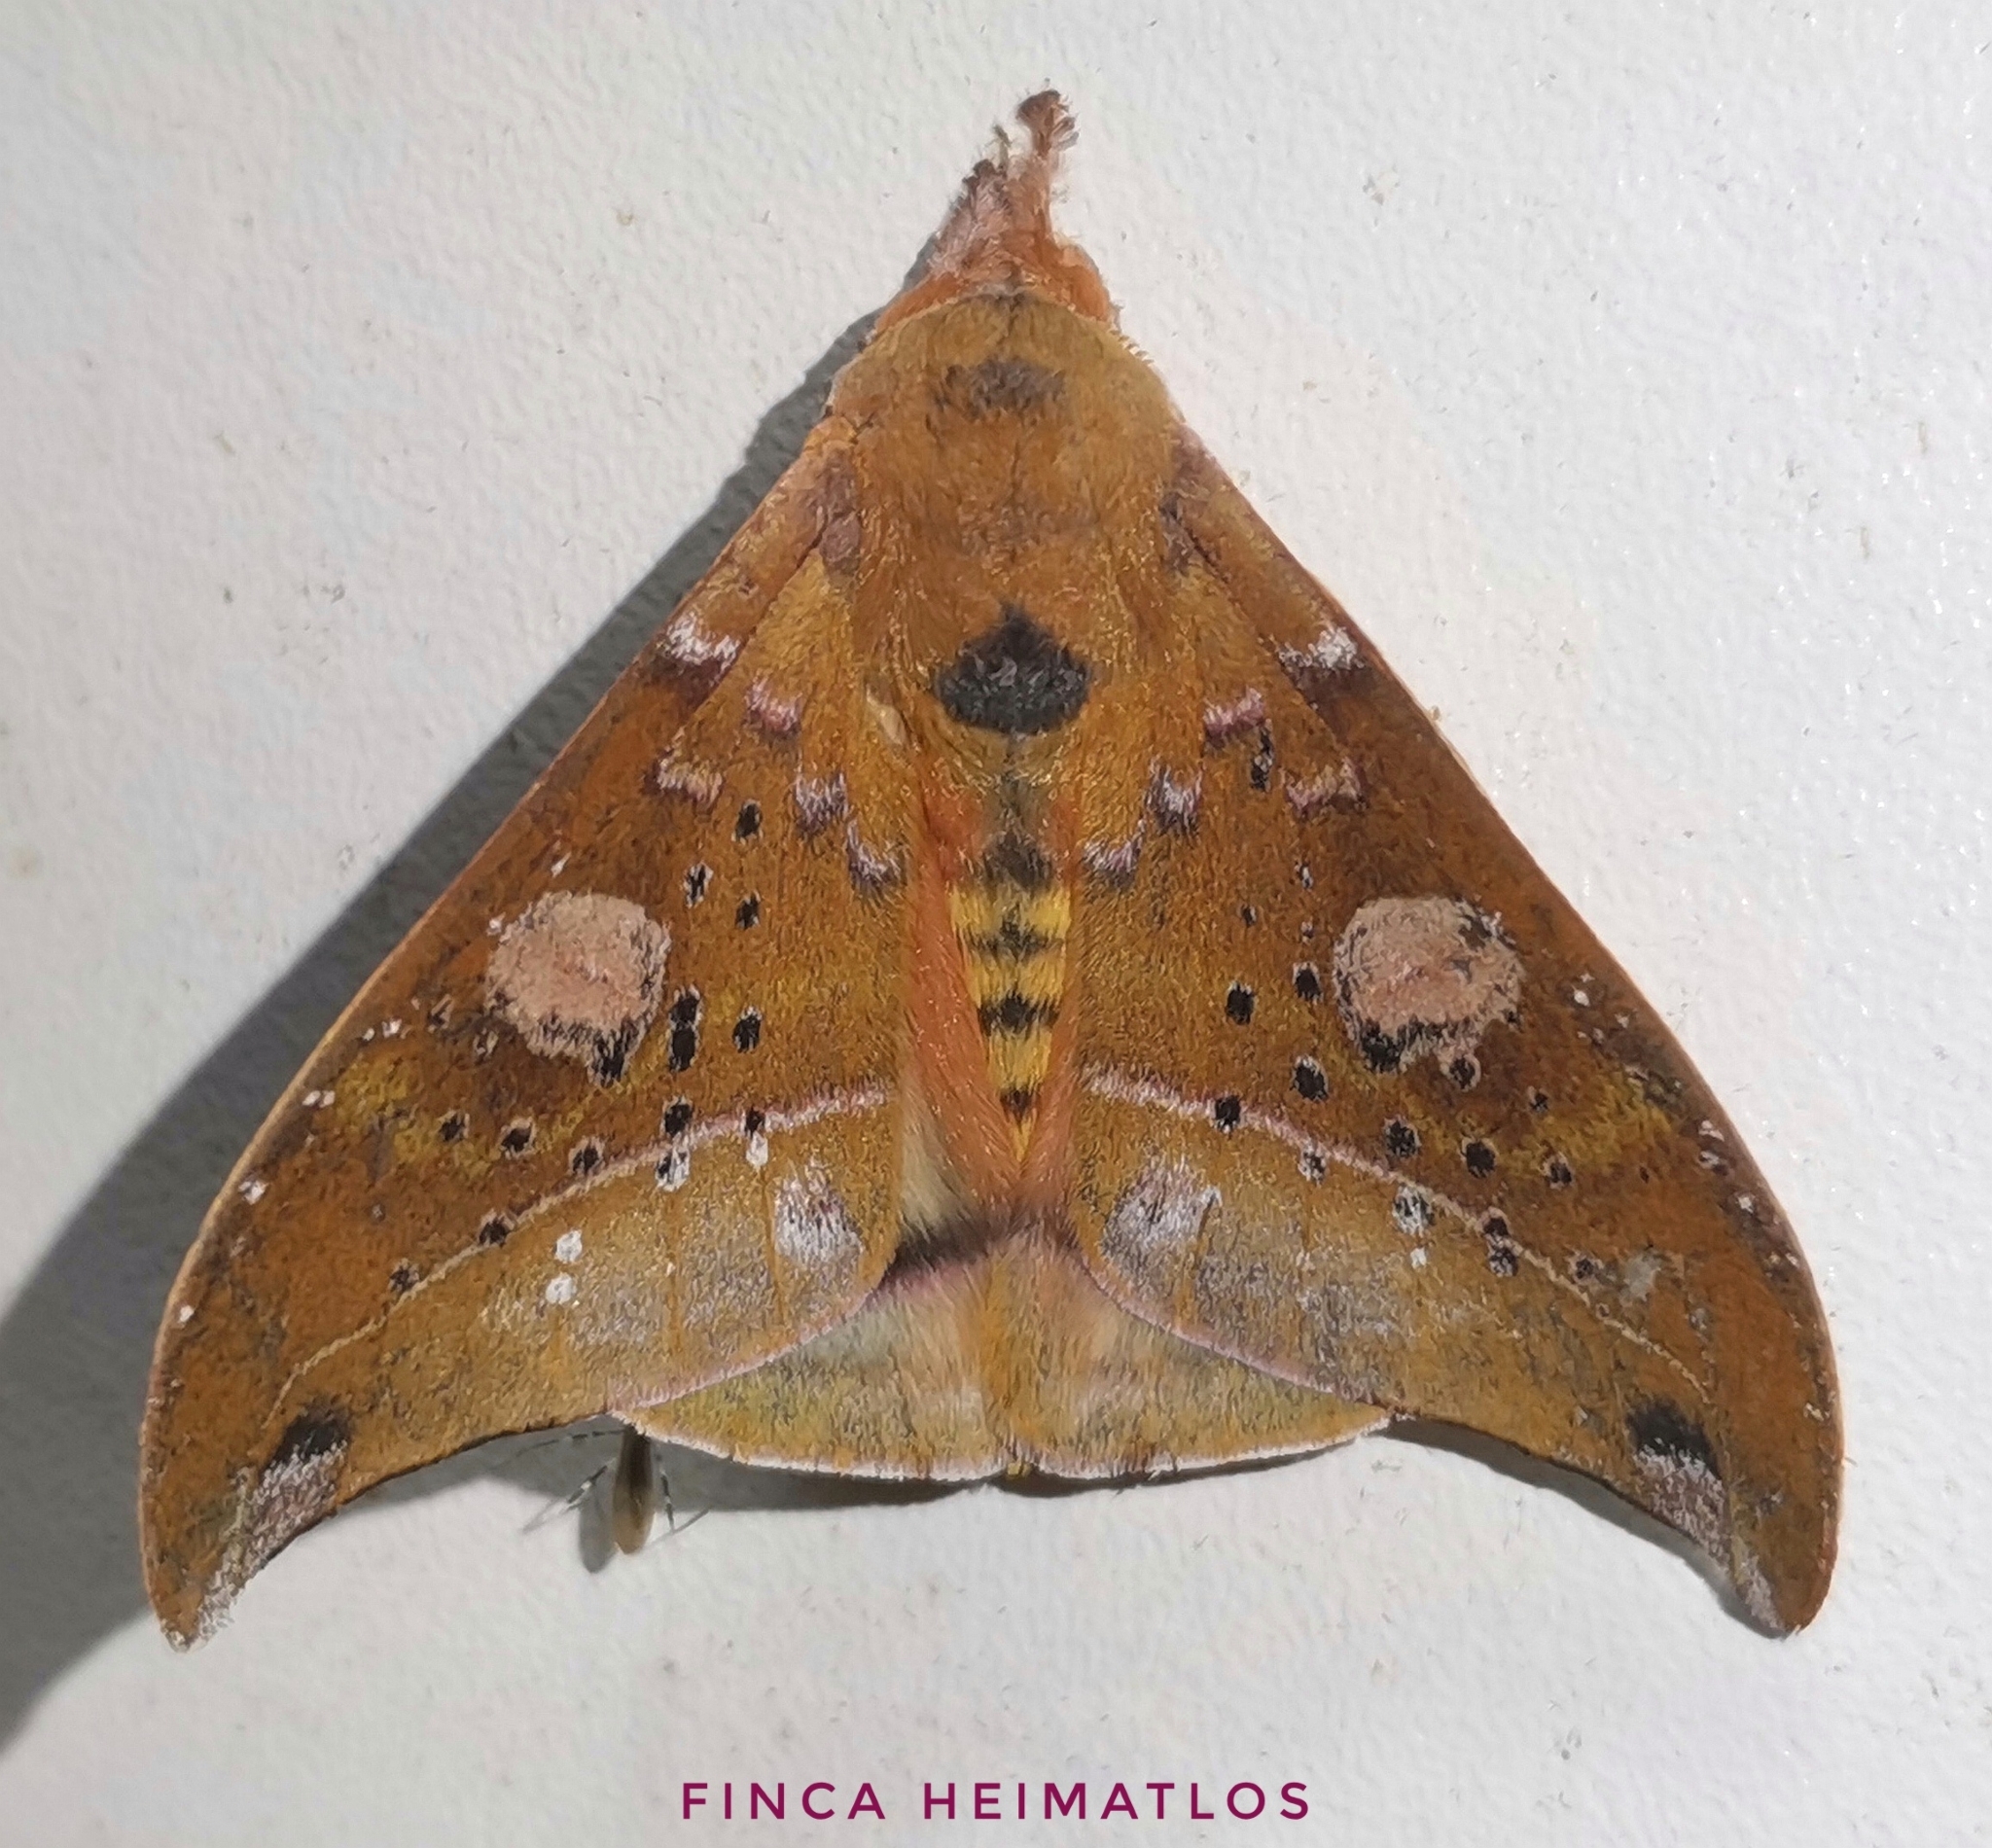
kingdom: Animalia
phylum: Arthropoda
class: Insecta
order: Lepidoptera
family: Saturniidae
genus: Automerina
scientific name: Automerina auletes
